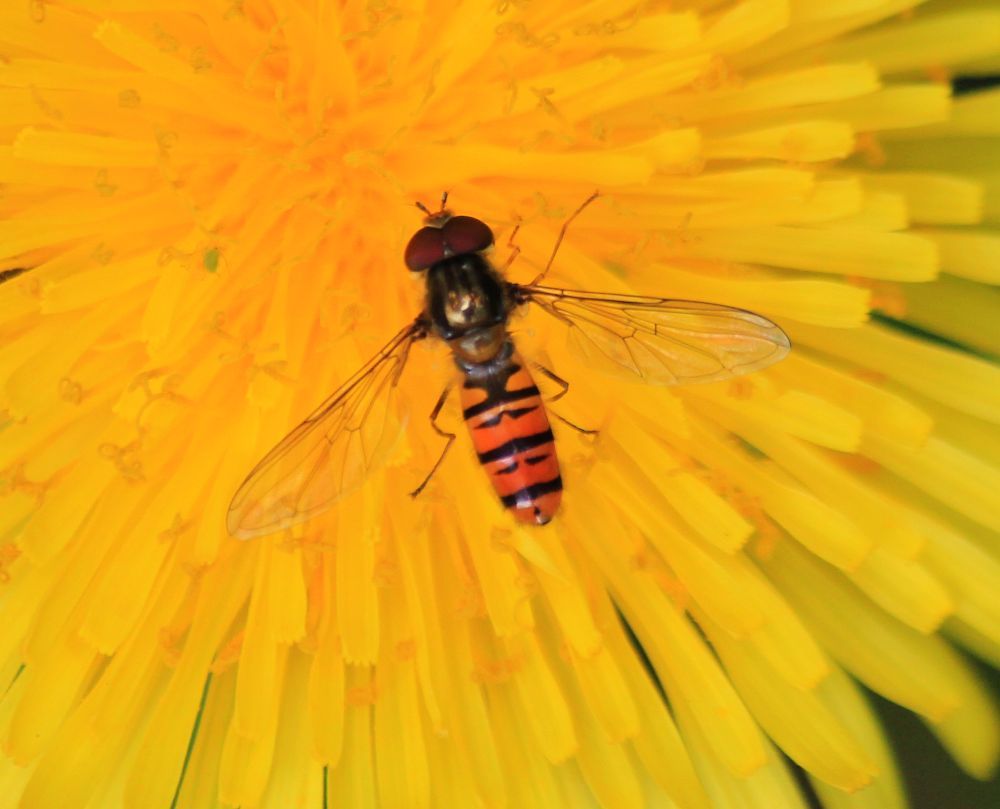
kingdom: Animalia
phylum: Arthropoda
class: Insecta
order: Diptera
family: Syrphidae
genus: Episyrphus
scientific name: Episyrphus balteatus
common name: Marmalade hoverfly
